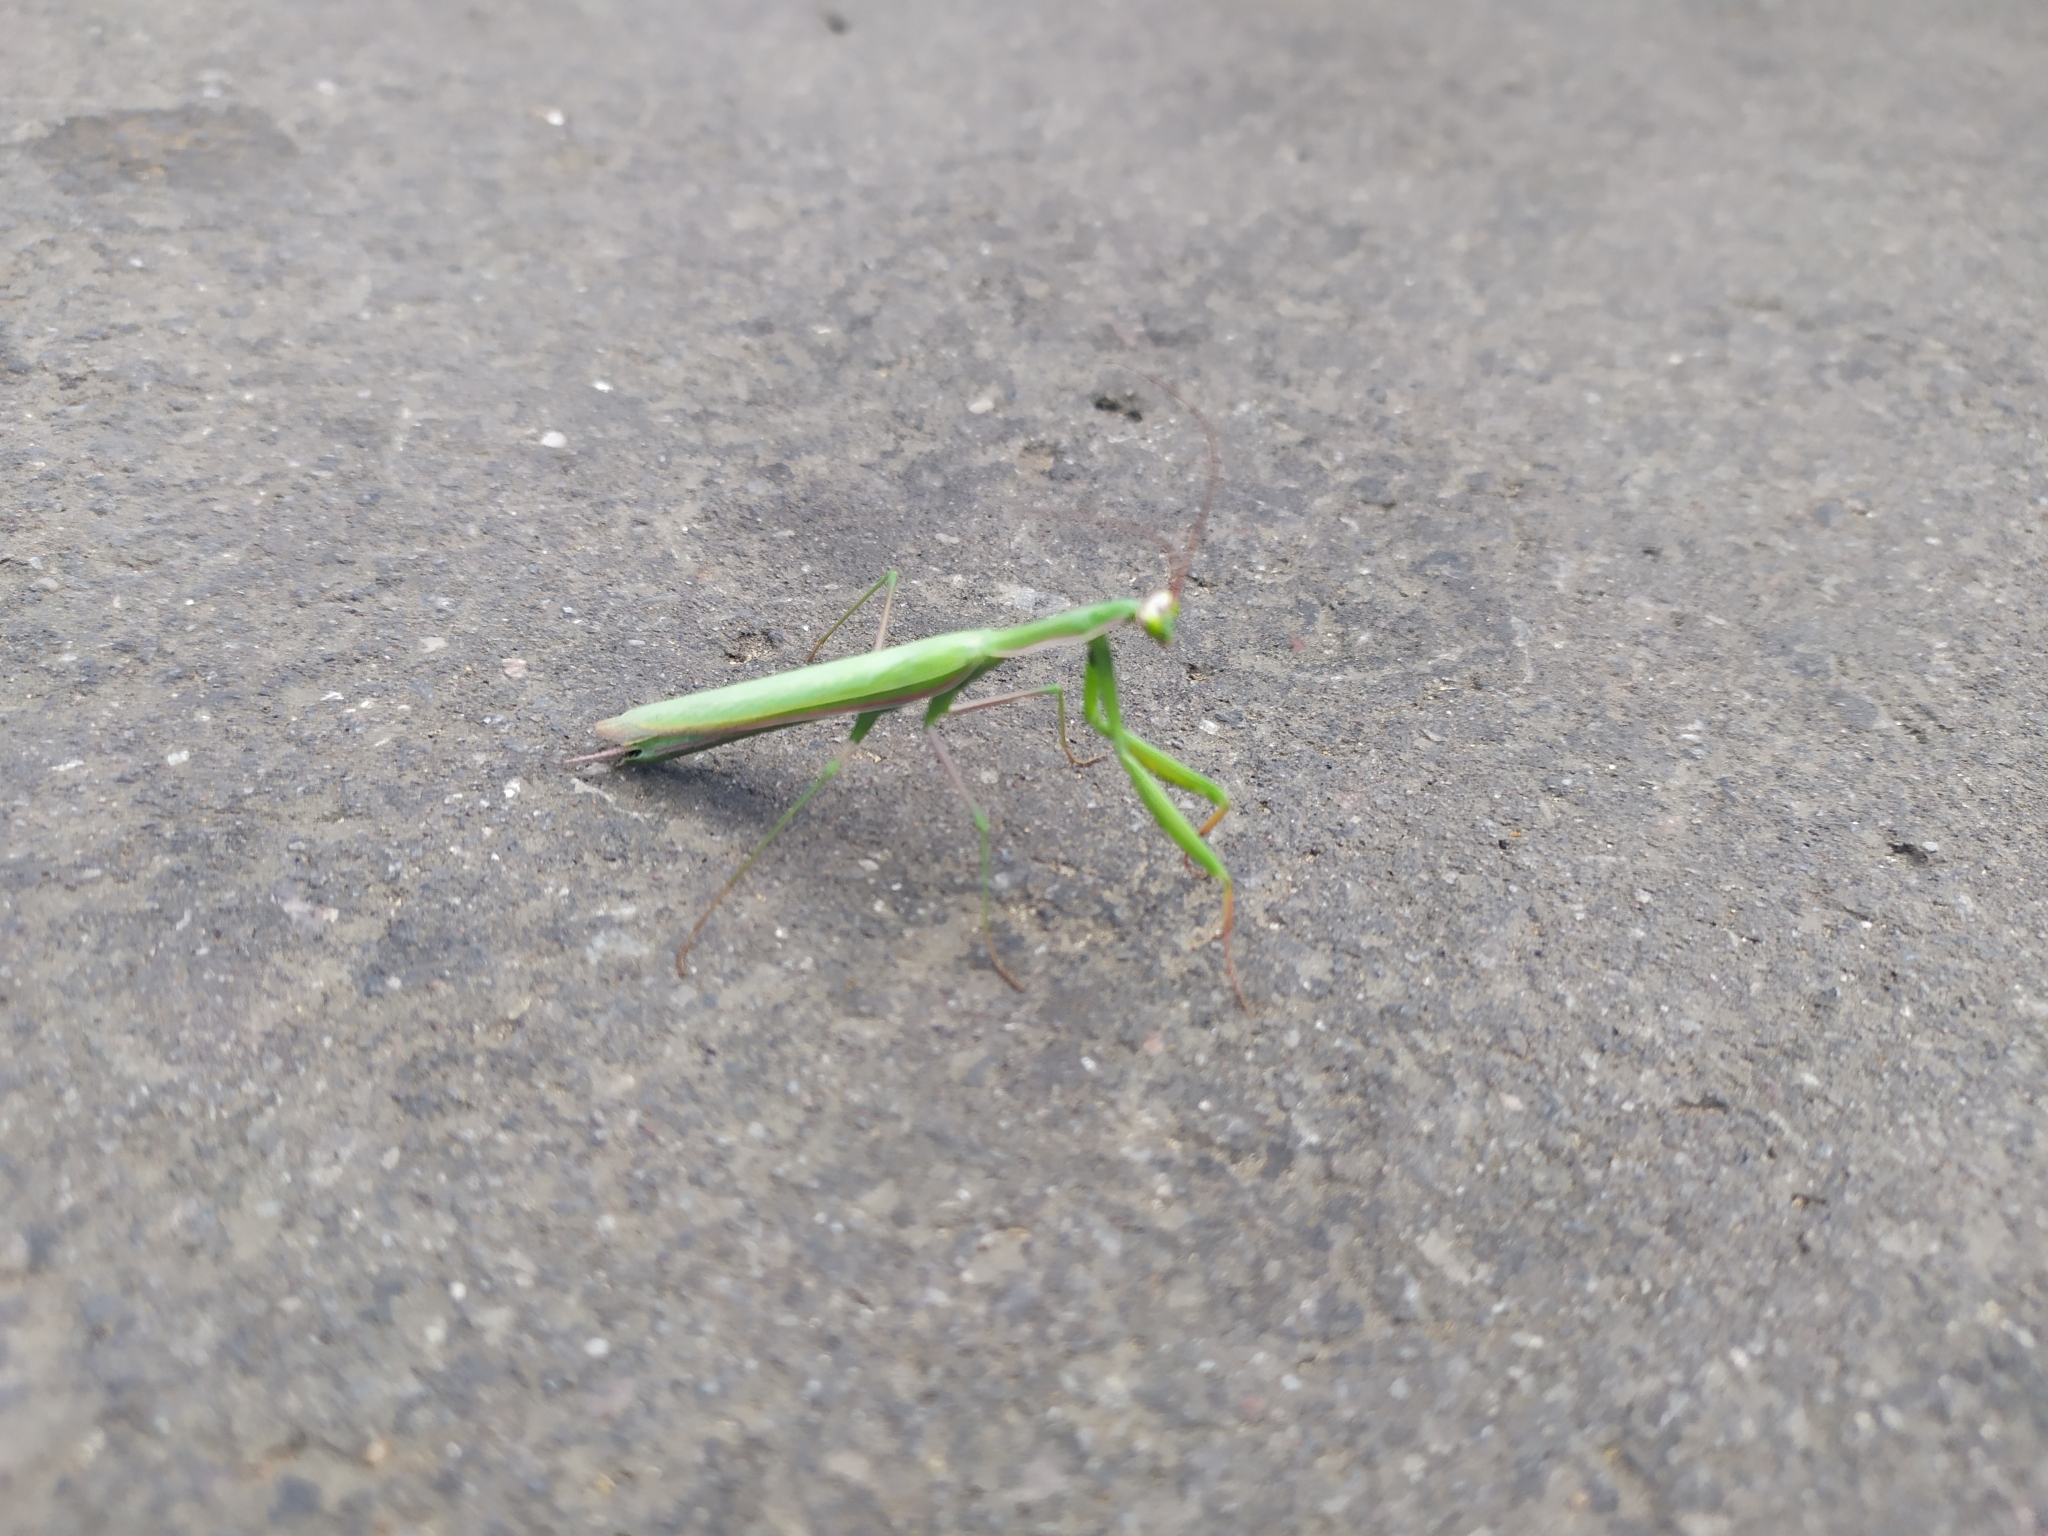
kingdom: Animalia
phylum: Arthropoda
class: Insecta
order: Mantodea
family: Mantidae
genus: Mantis
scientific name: Mantis religiosa
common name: Praying mantis
